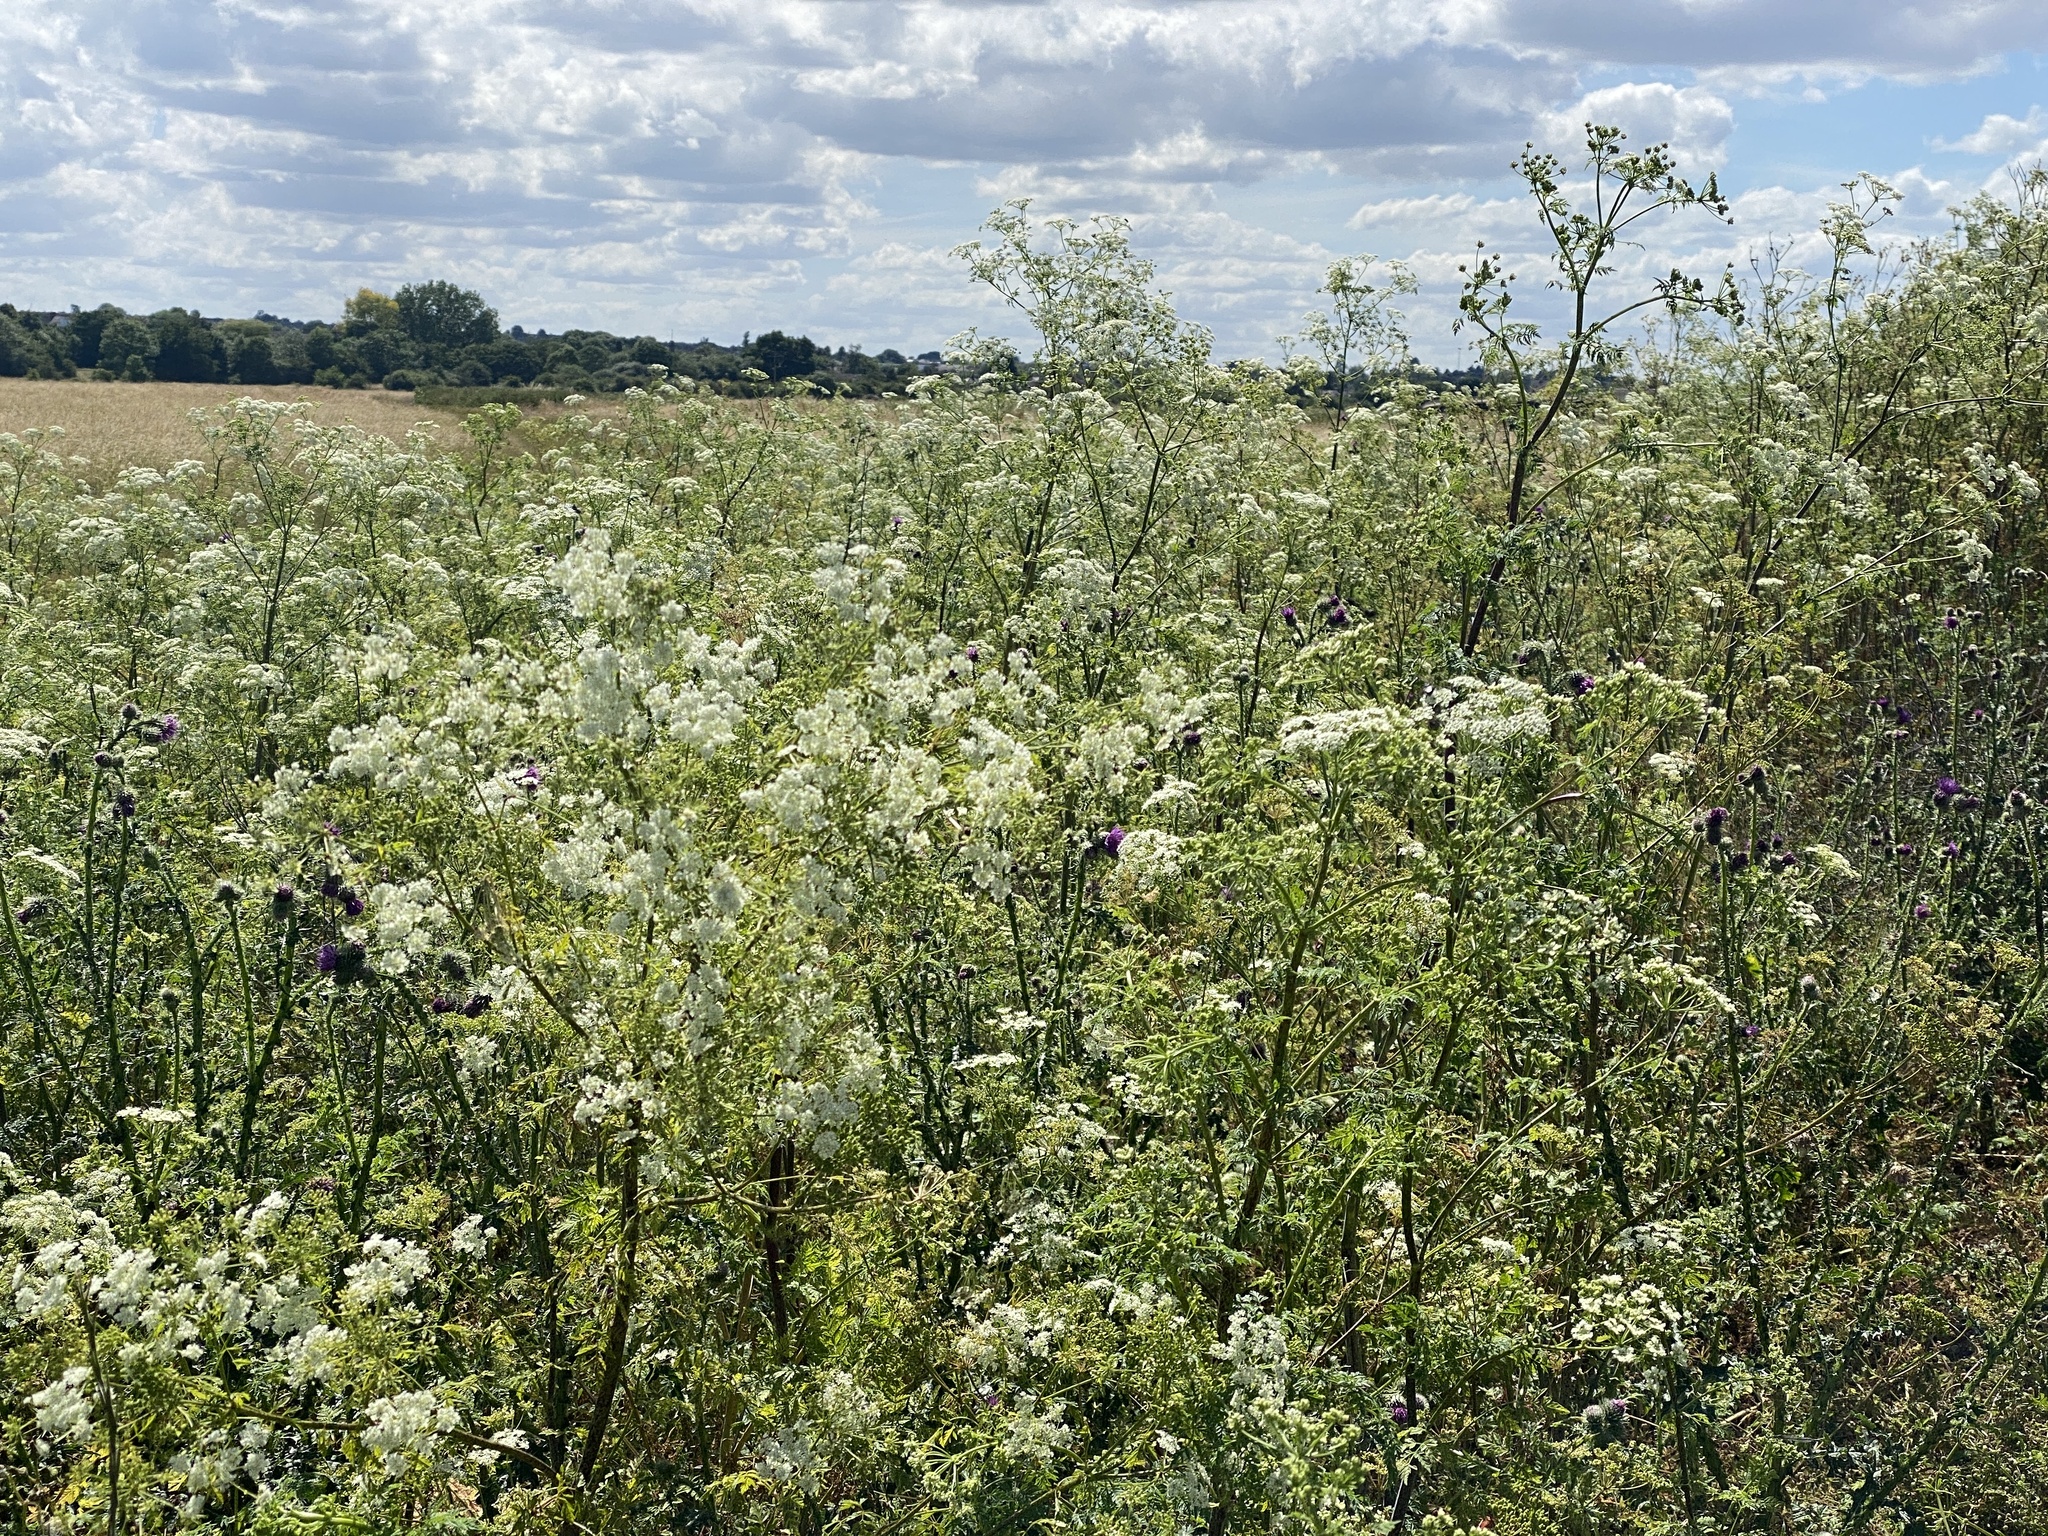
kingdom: Plantae
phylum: Tracheophyta
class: Magnoliopsida
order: Apiales
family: Apiaceae
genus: Conium
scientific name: Conium maculatum
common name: Hemlock
